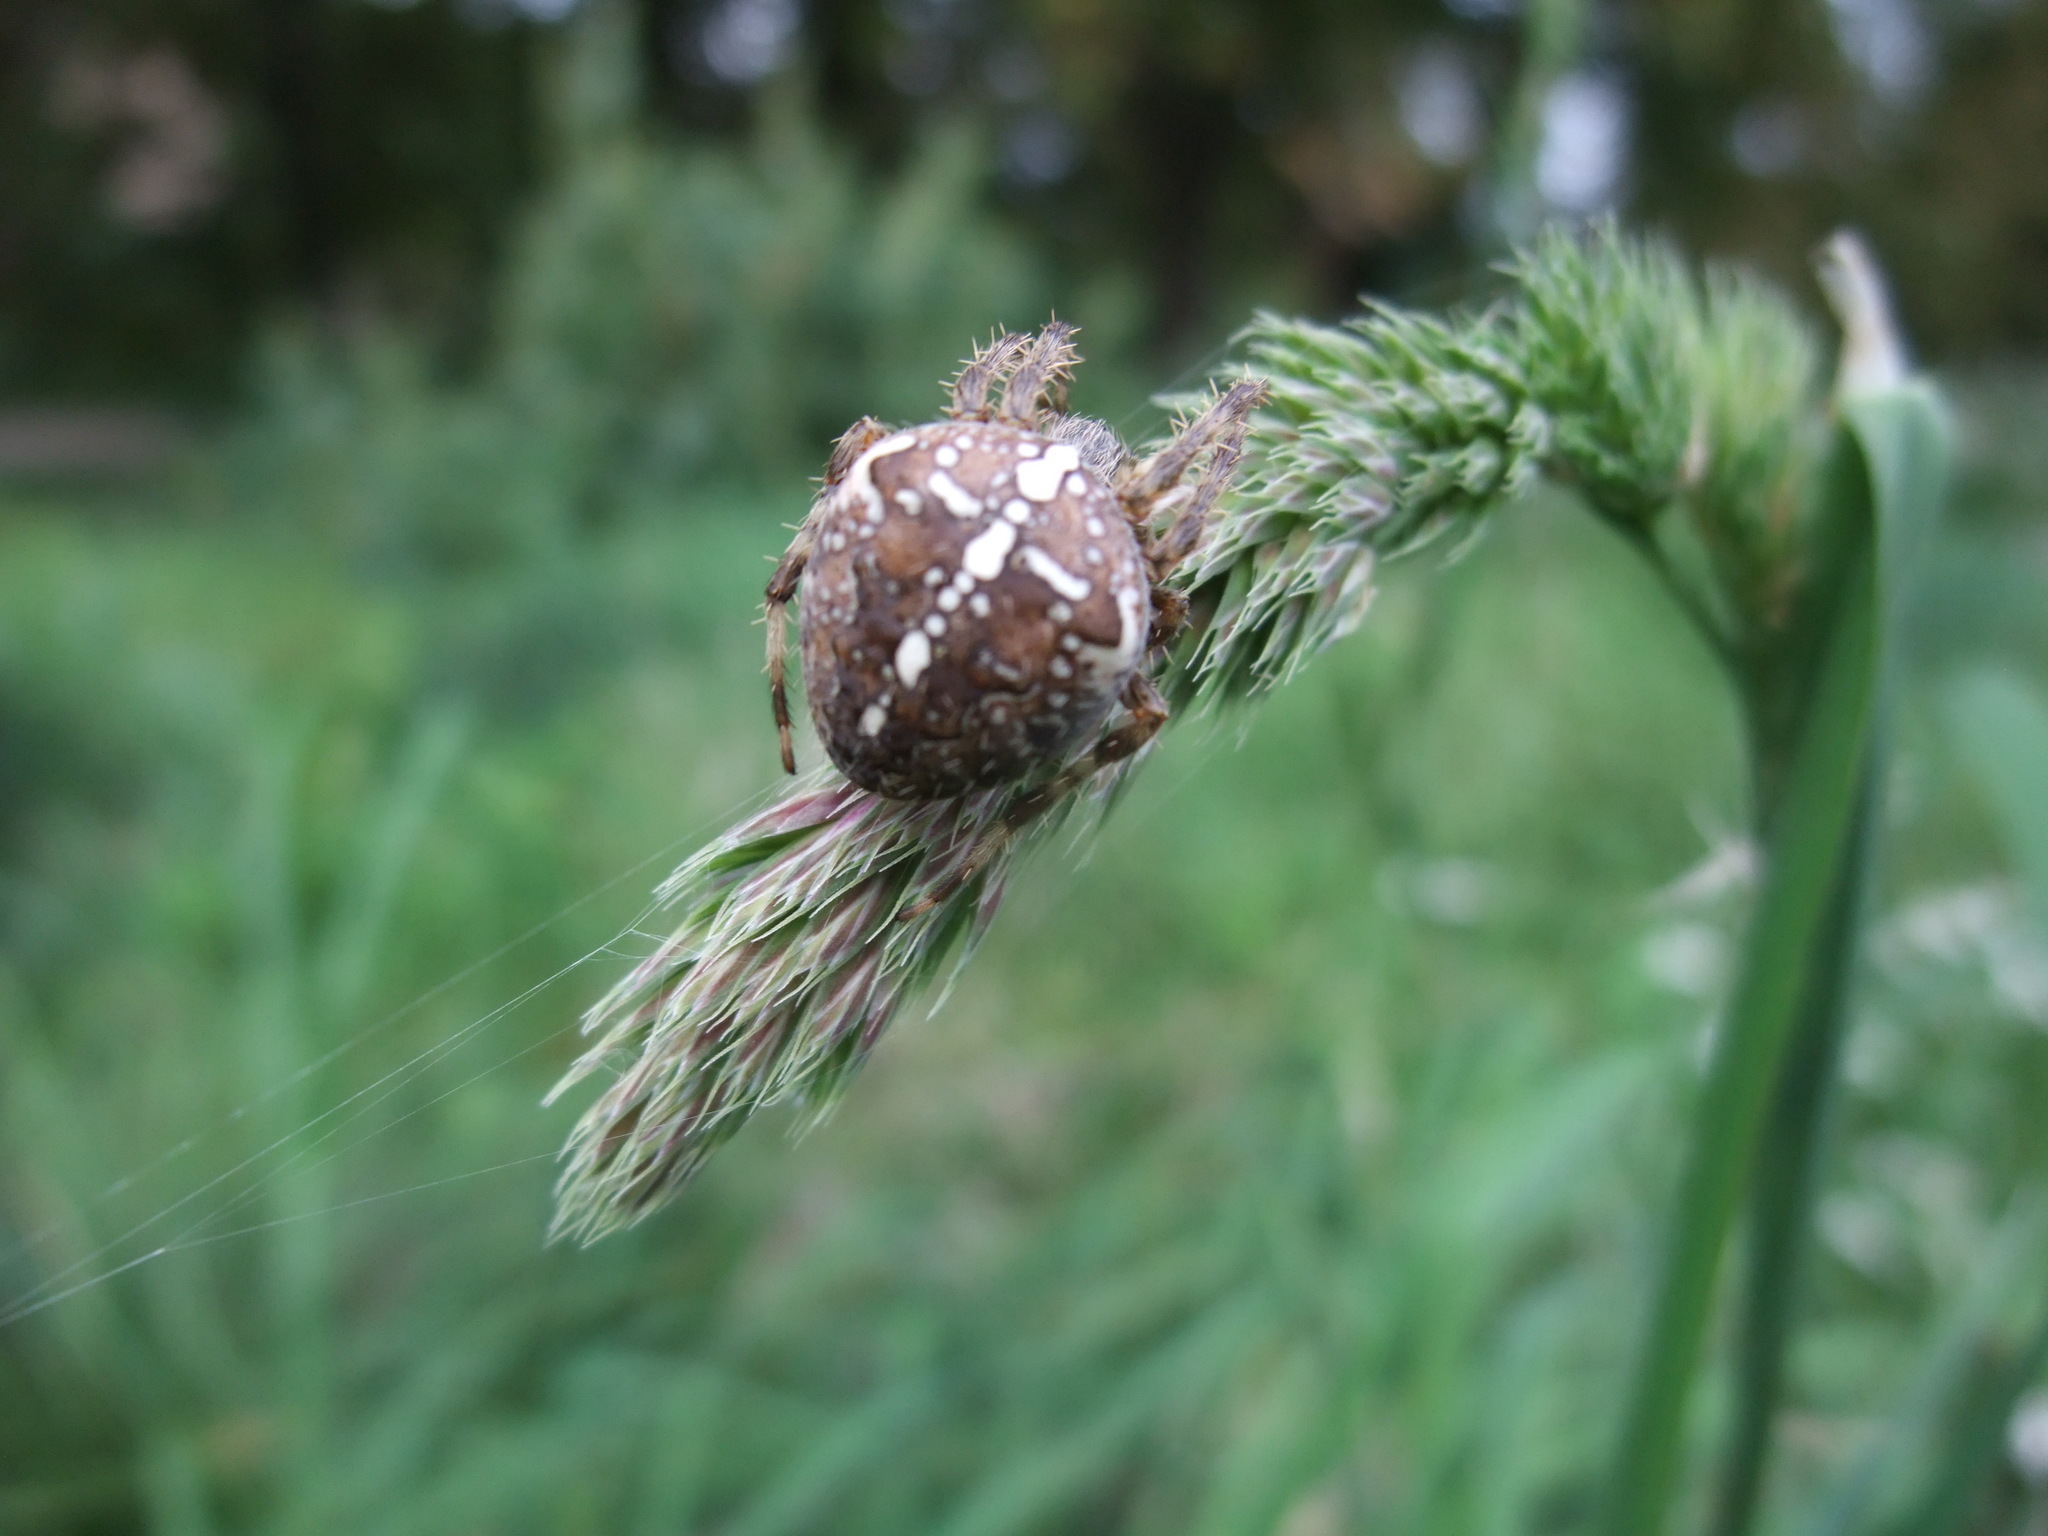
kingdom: Animalia
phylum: Arthropoda
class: Arachnida
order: Araneae
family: Araneidae
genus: Araneus
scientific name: Araneus diadematus
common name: Cross orbweaver
